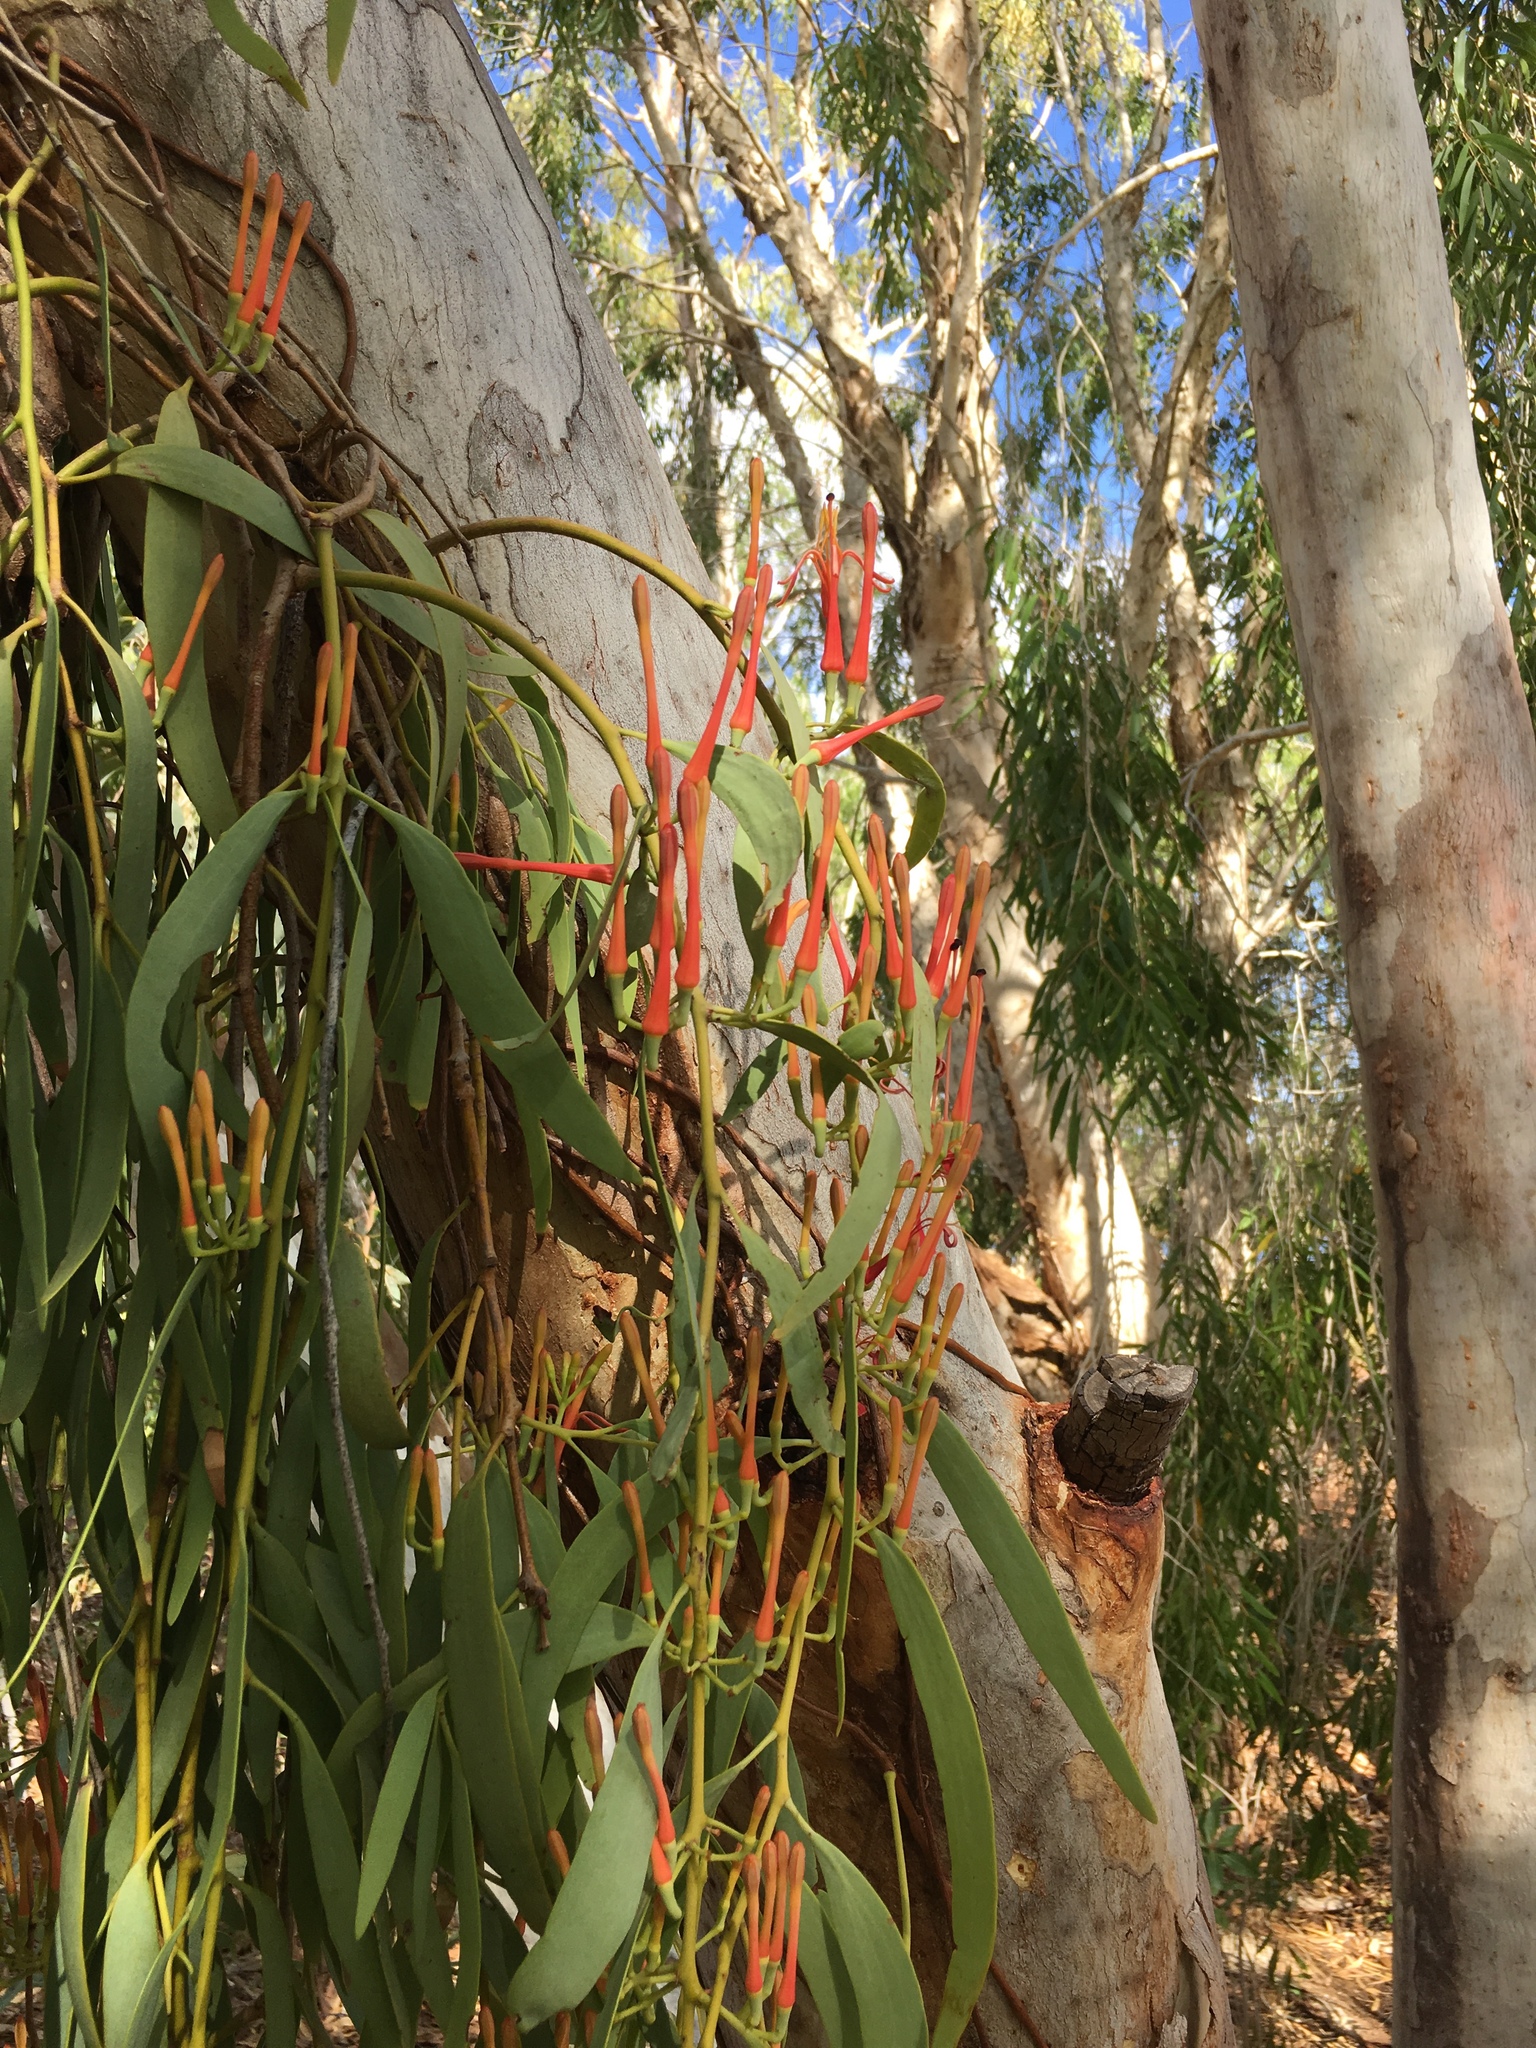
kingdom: Plantae
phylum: Tracheophyta
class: Magnoliopsida
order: Santalales
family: Loranthaceae
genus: Amyema
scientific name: Amyema sanguinea
